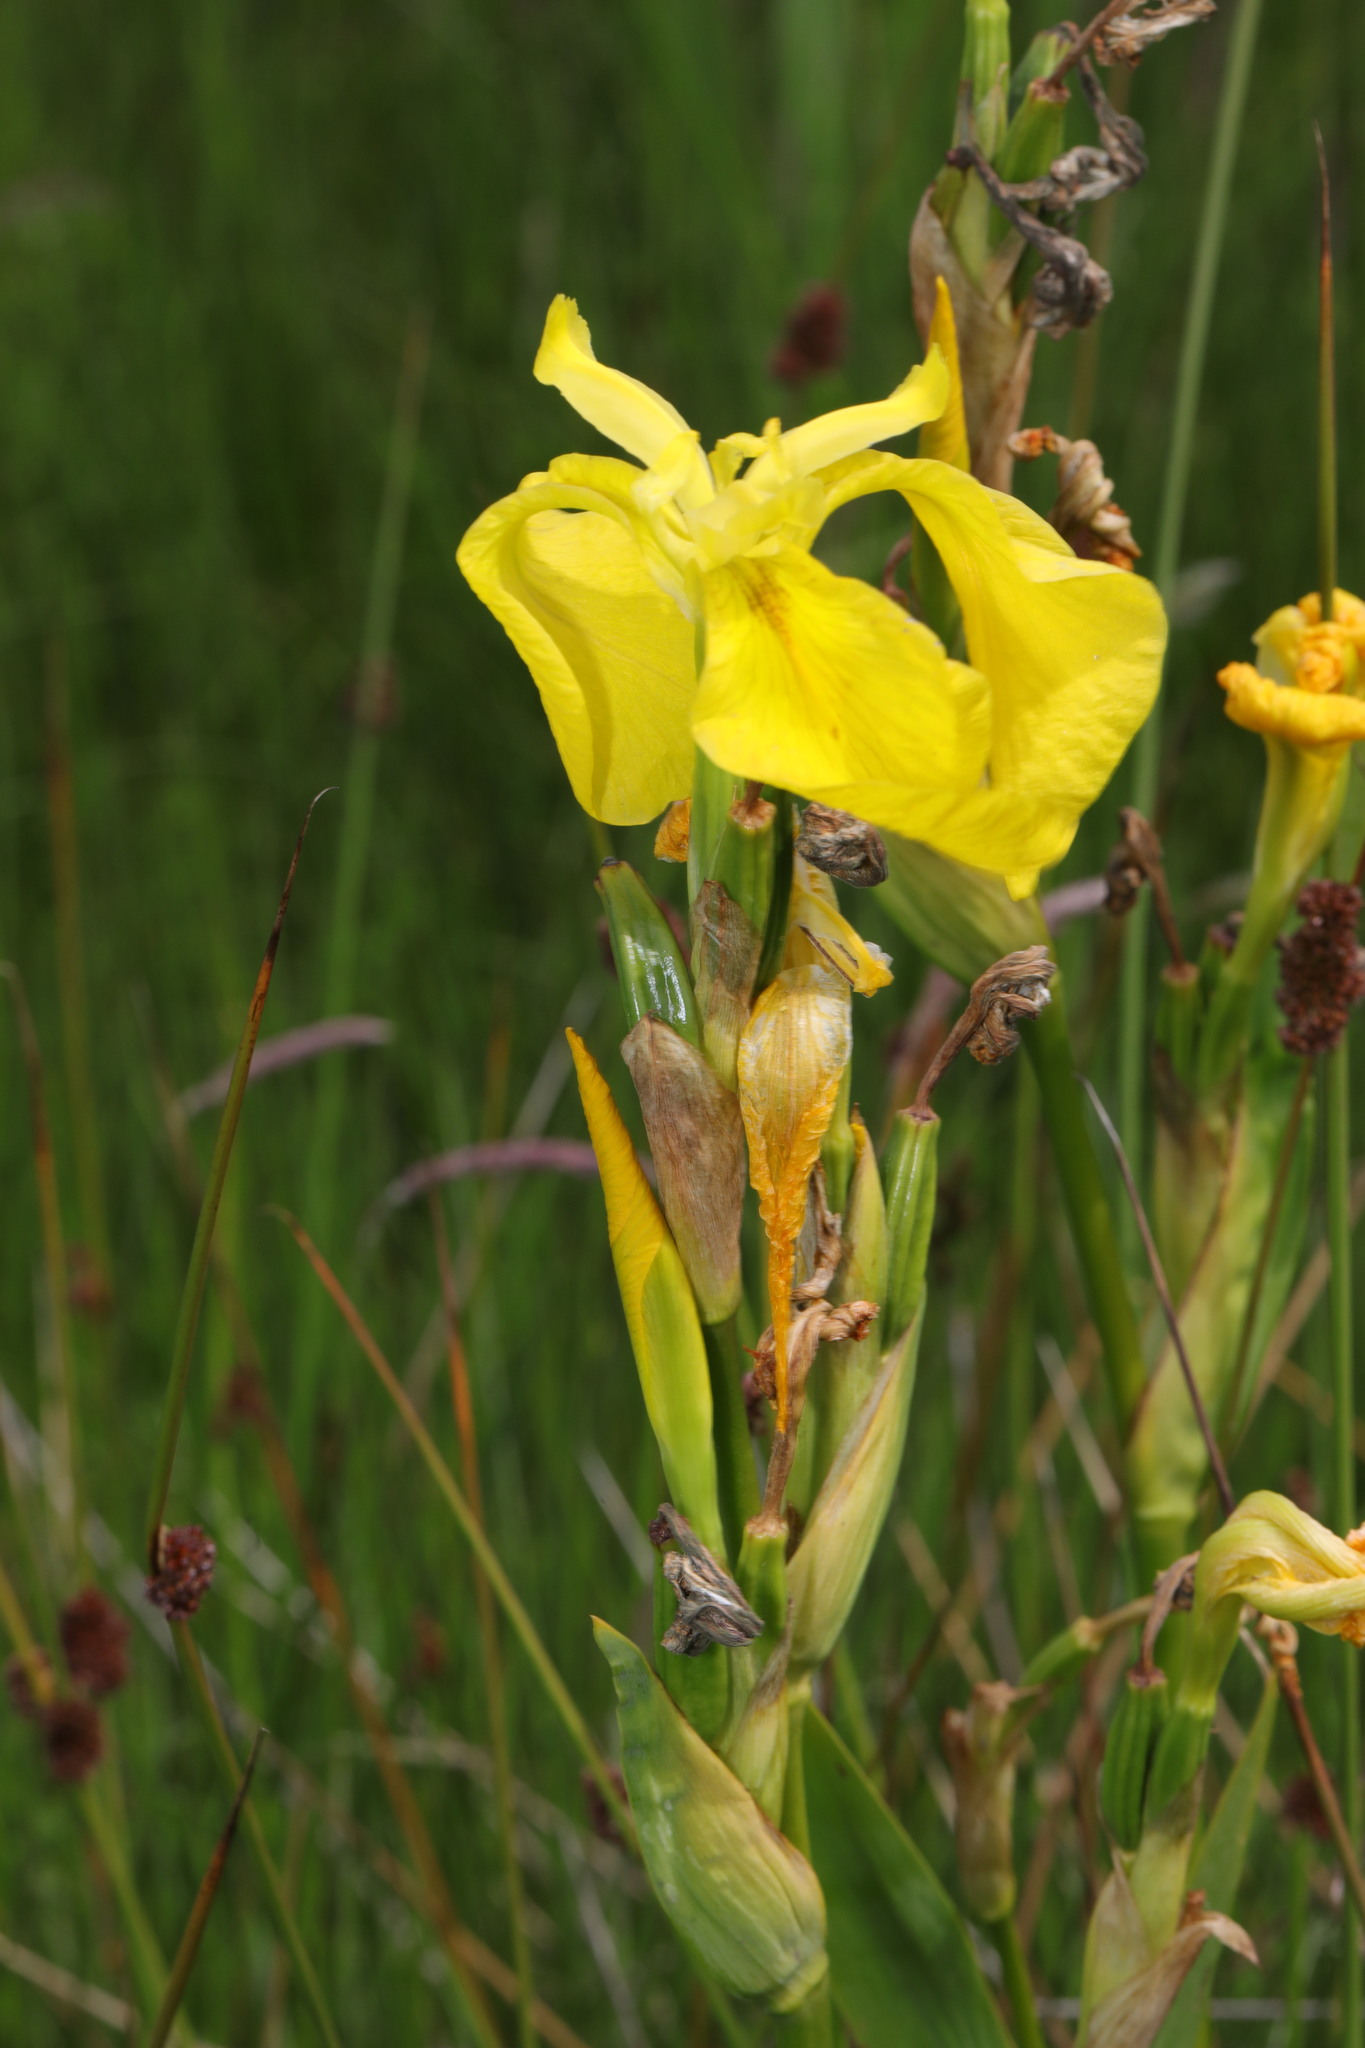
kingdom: Plantae
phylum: Tracheophyta
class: Liliopsida
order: Asparagales
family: Iridaceae
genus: Iris
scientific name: Iris pseudacorus
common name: Yellow flag
